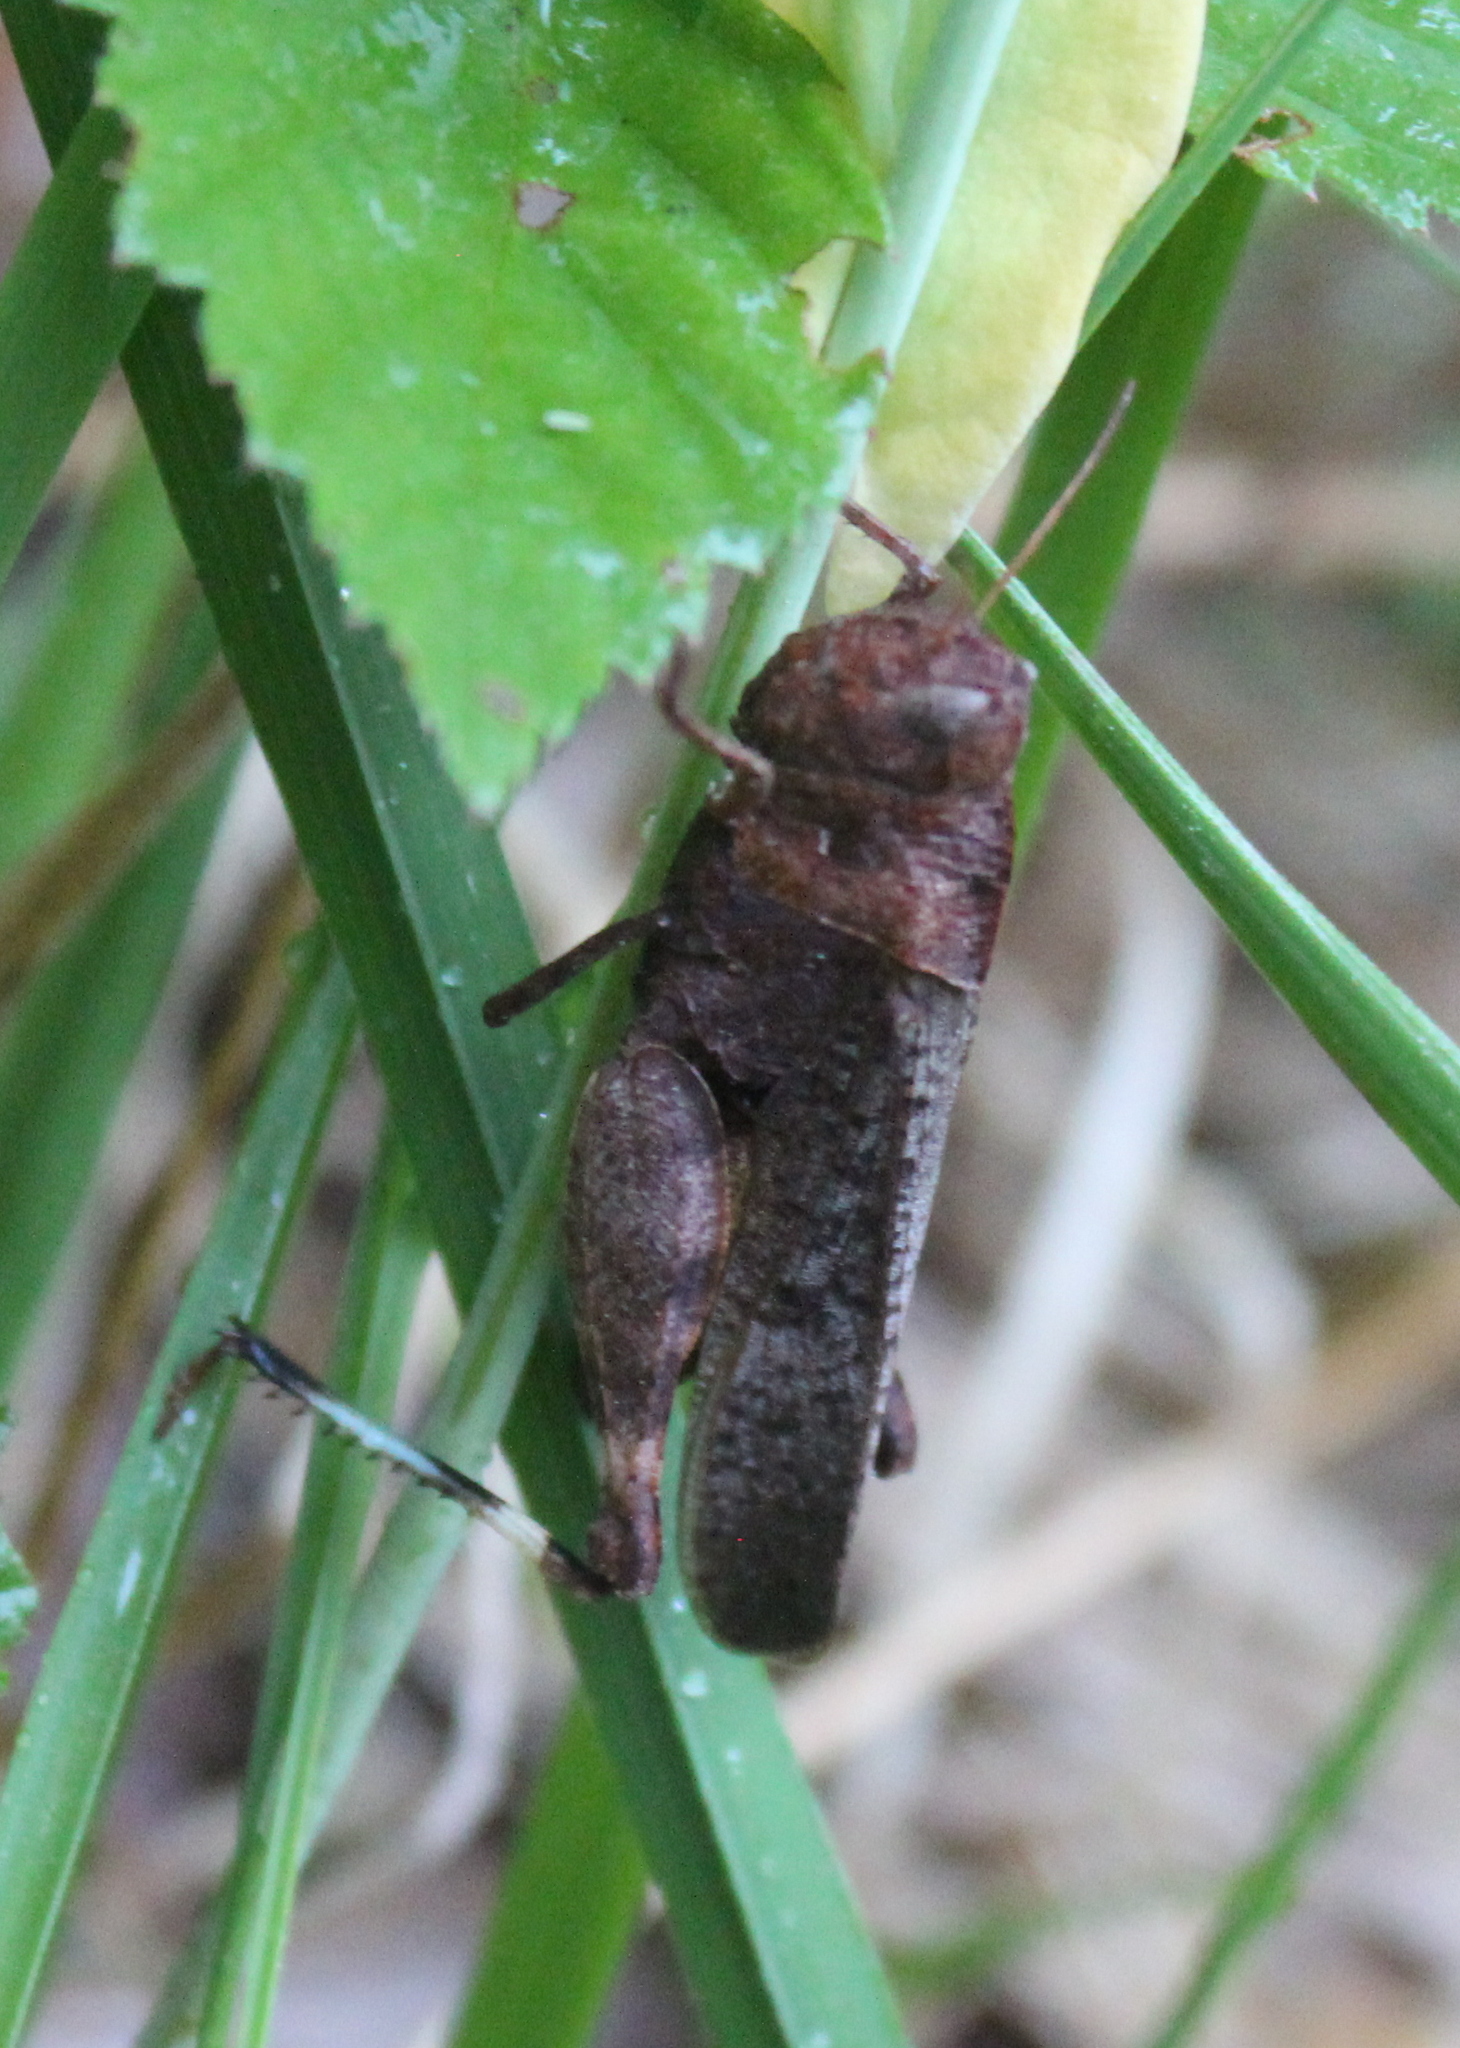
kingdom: Animalia
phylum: Arthropoda
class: Insecta
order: Orthoptera
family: Acrididae
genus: Arphia
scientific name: Arphia sulphurea
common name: Spring yellow-winged locust
